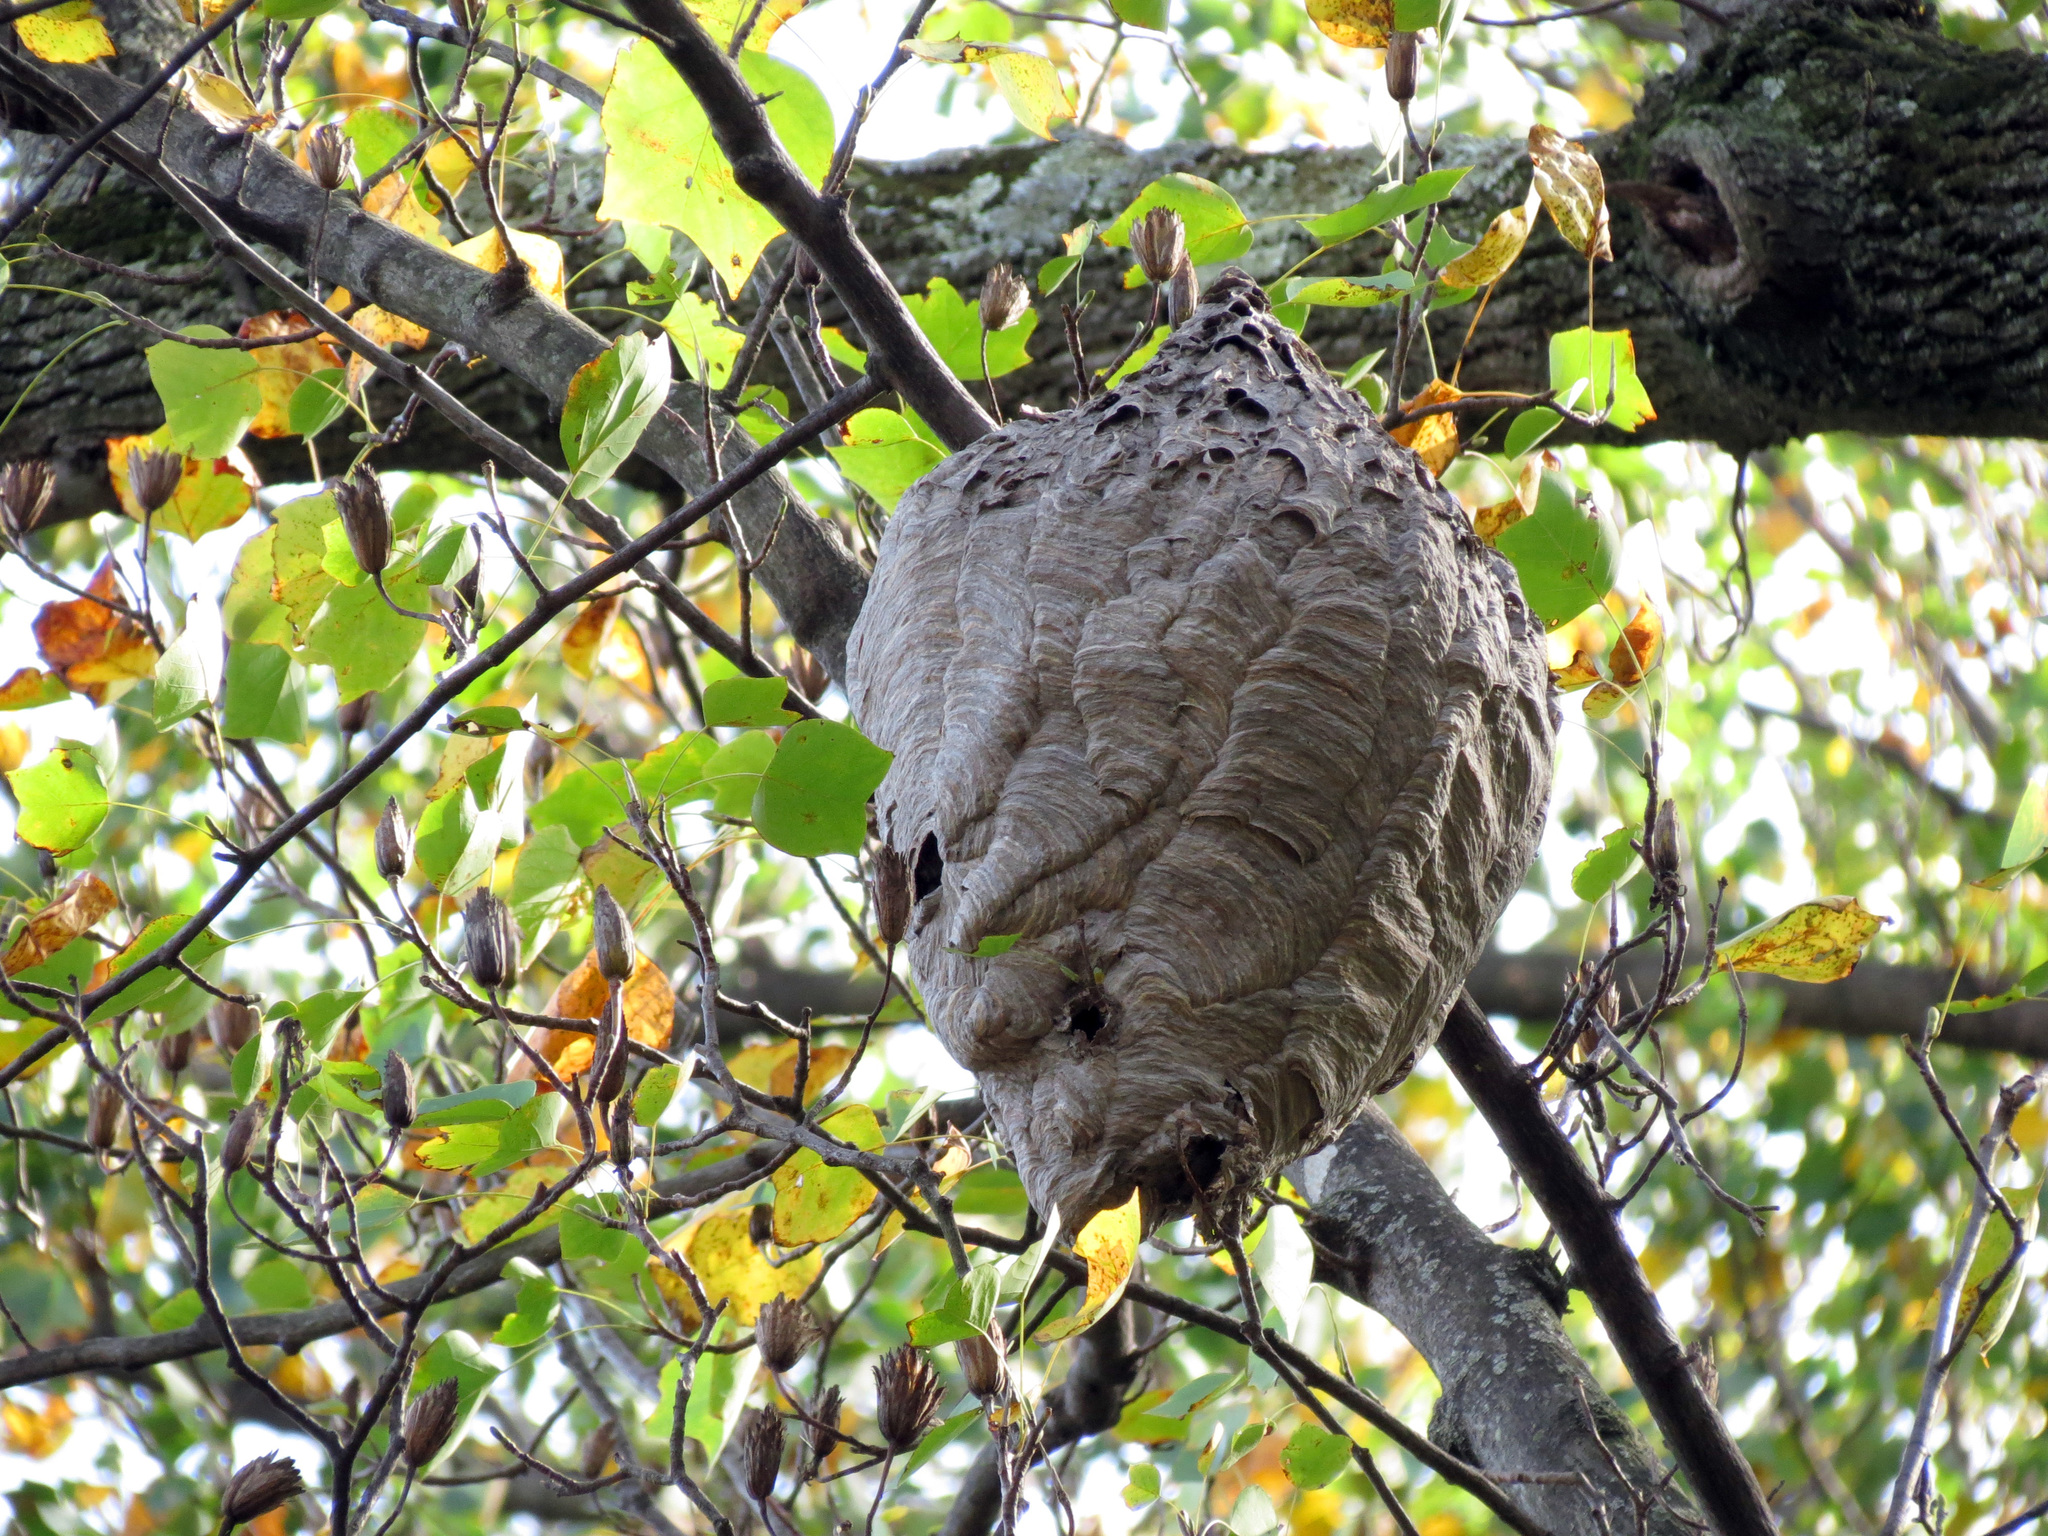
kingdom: Animalia
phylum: Arthropoda
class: Insecta
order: Hymenoptera
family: Vespidae
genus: Dolichovespula
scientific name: Dolichovespula maculata
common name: Bald-faced hornet
